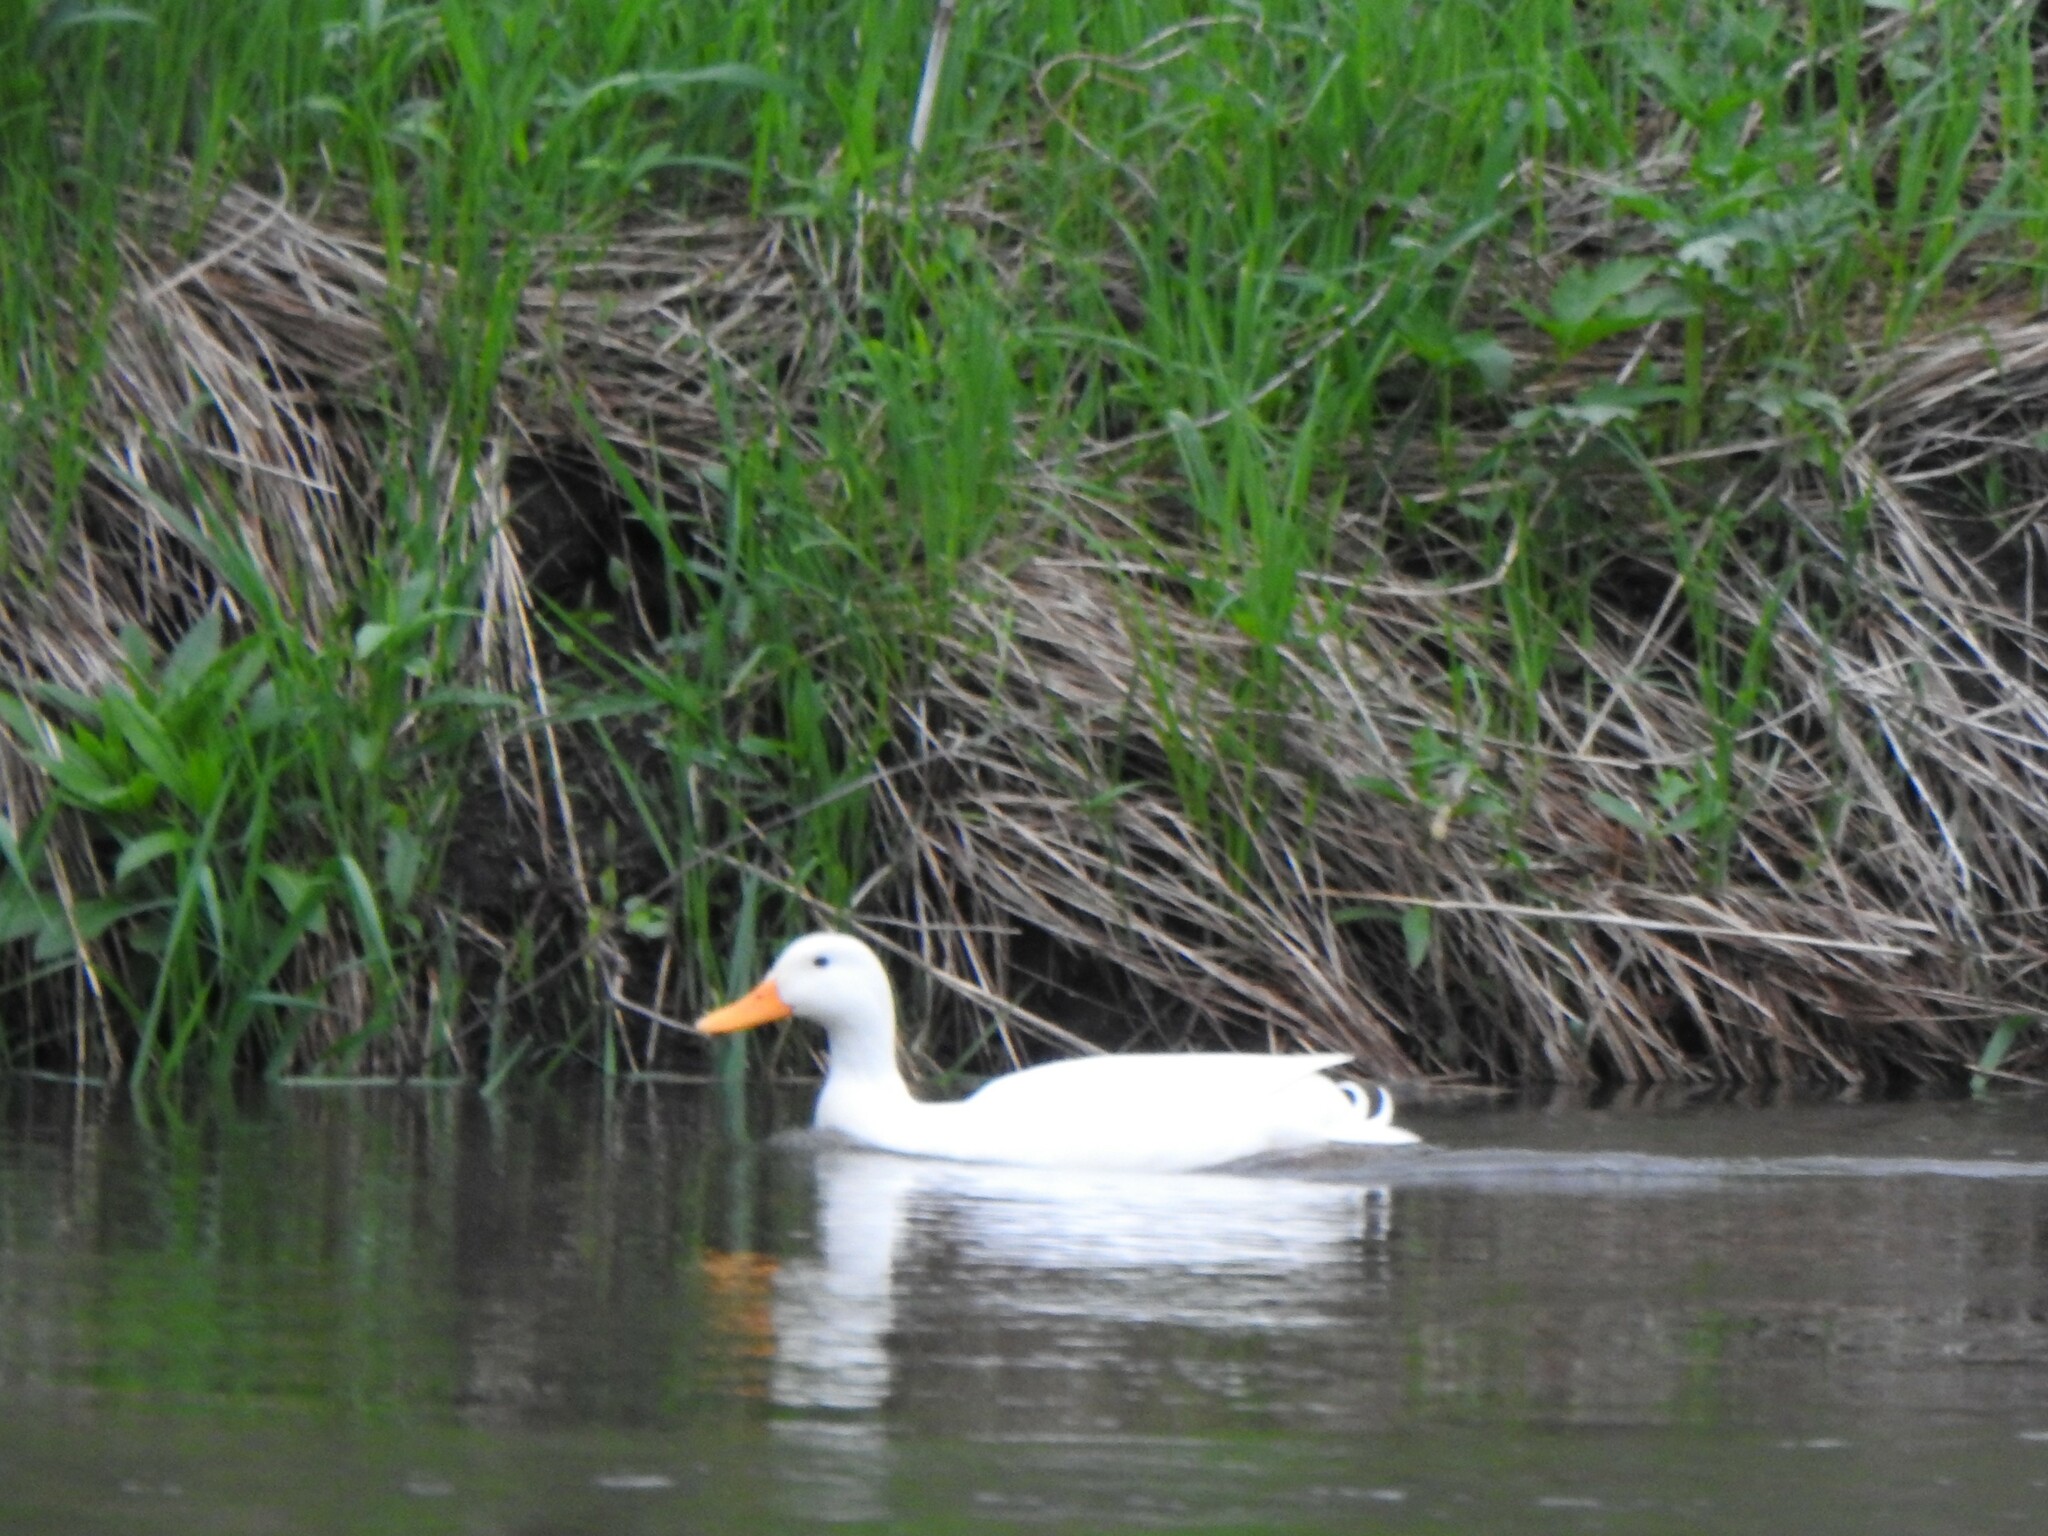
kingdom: Animalia
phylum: Chordata
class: Aves
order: Anseriformes
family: Anatidae
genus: Anas
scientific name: Anas platyrhynchos
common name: Mallard
